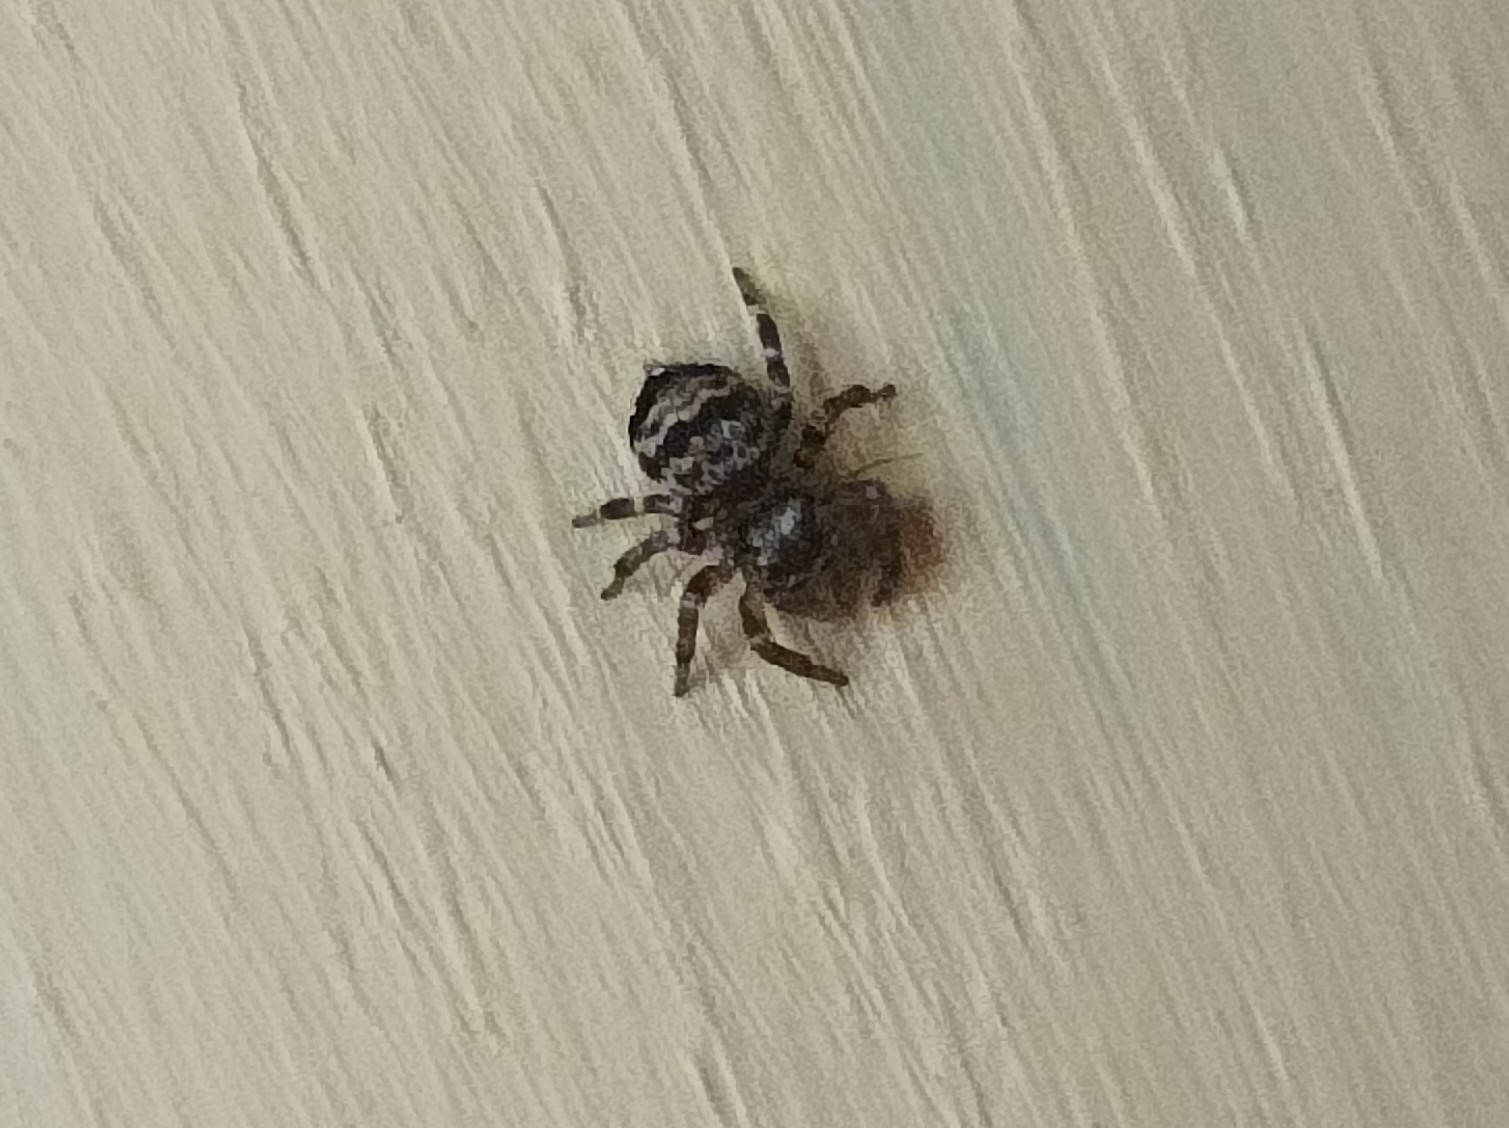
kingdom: Animalia
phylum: Arthropoda
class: Arachnida
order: Araneae
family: Salticidae
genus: Thorelliola
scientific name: Thorelliola ensifera
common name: Jumping spider
